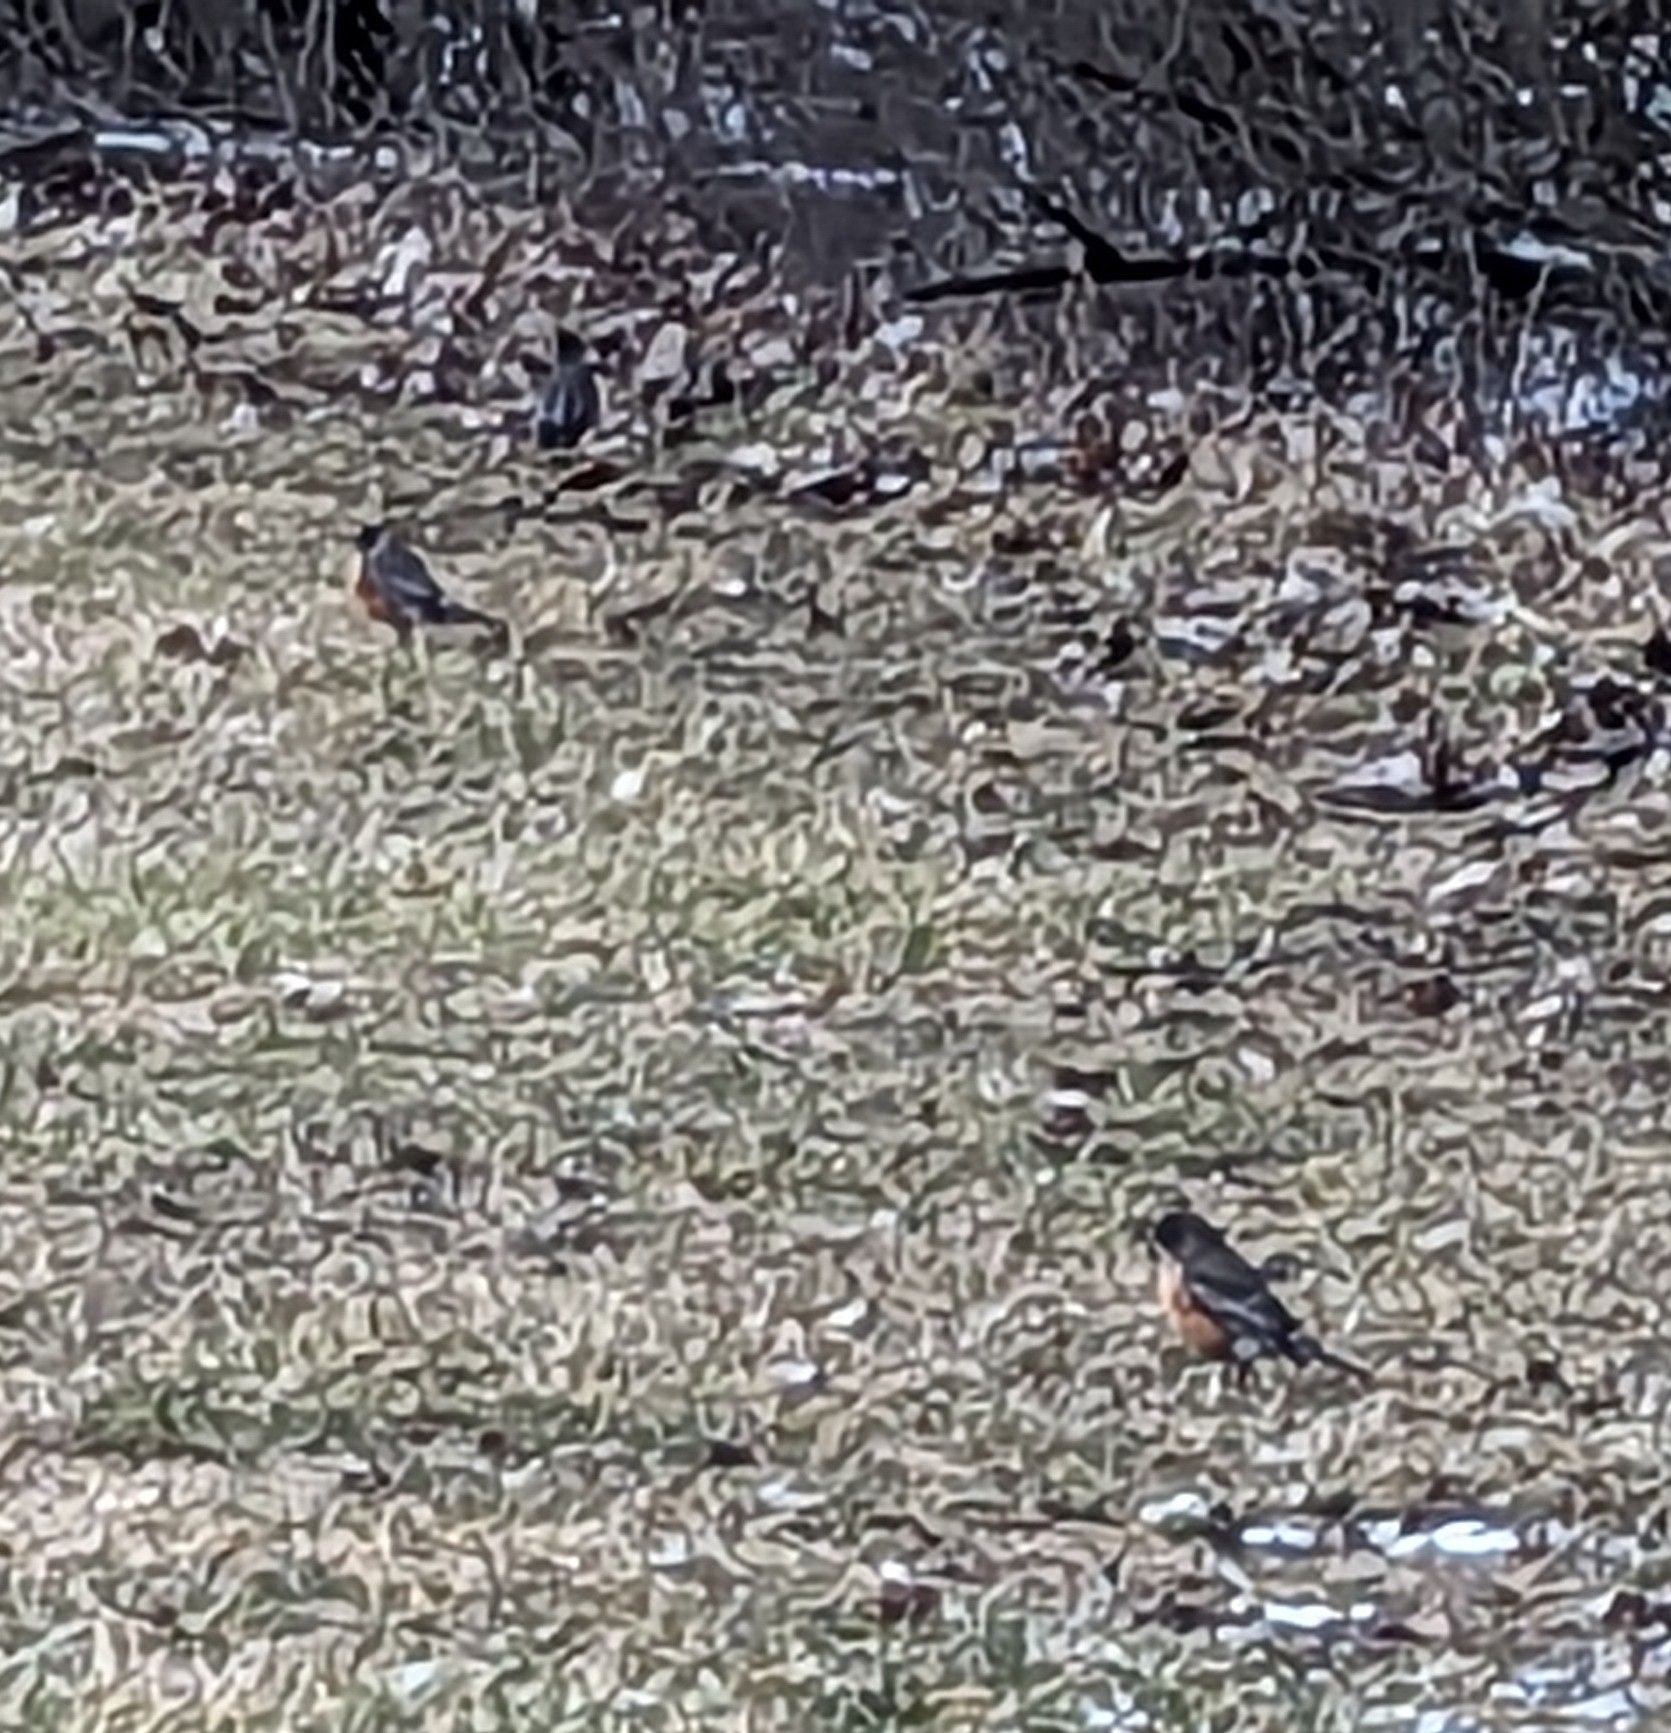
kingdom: Animalia
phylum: Chordata
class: Aves
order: Passeriformes
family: Turdidae
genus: Turdus
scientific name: Turdus migratorius
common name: American robin
